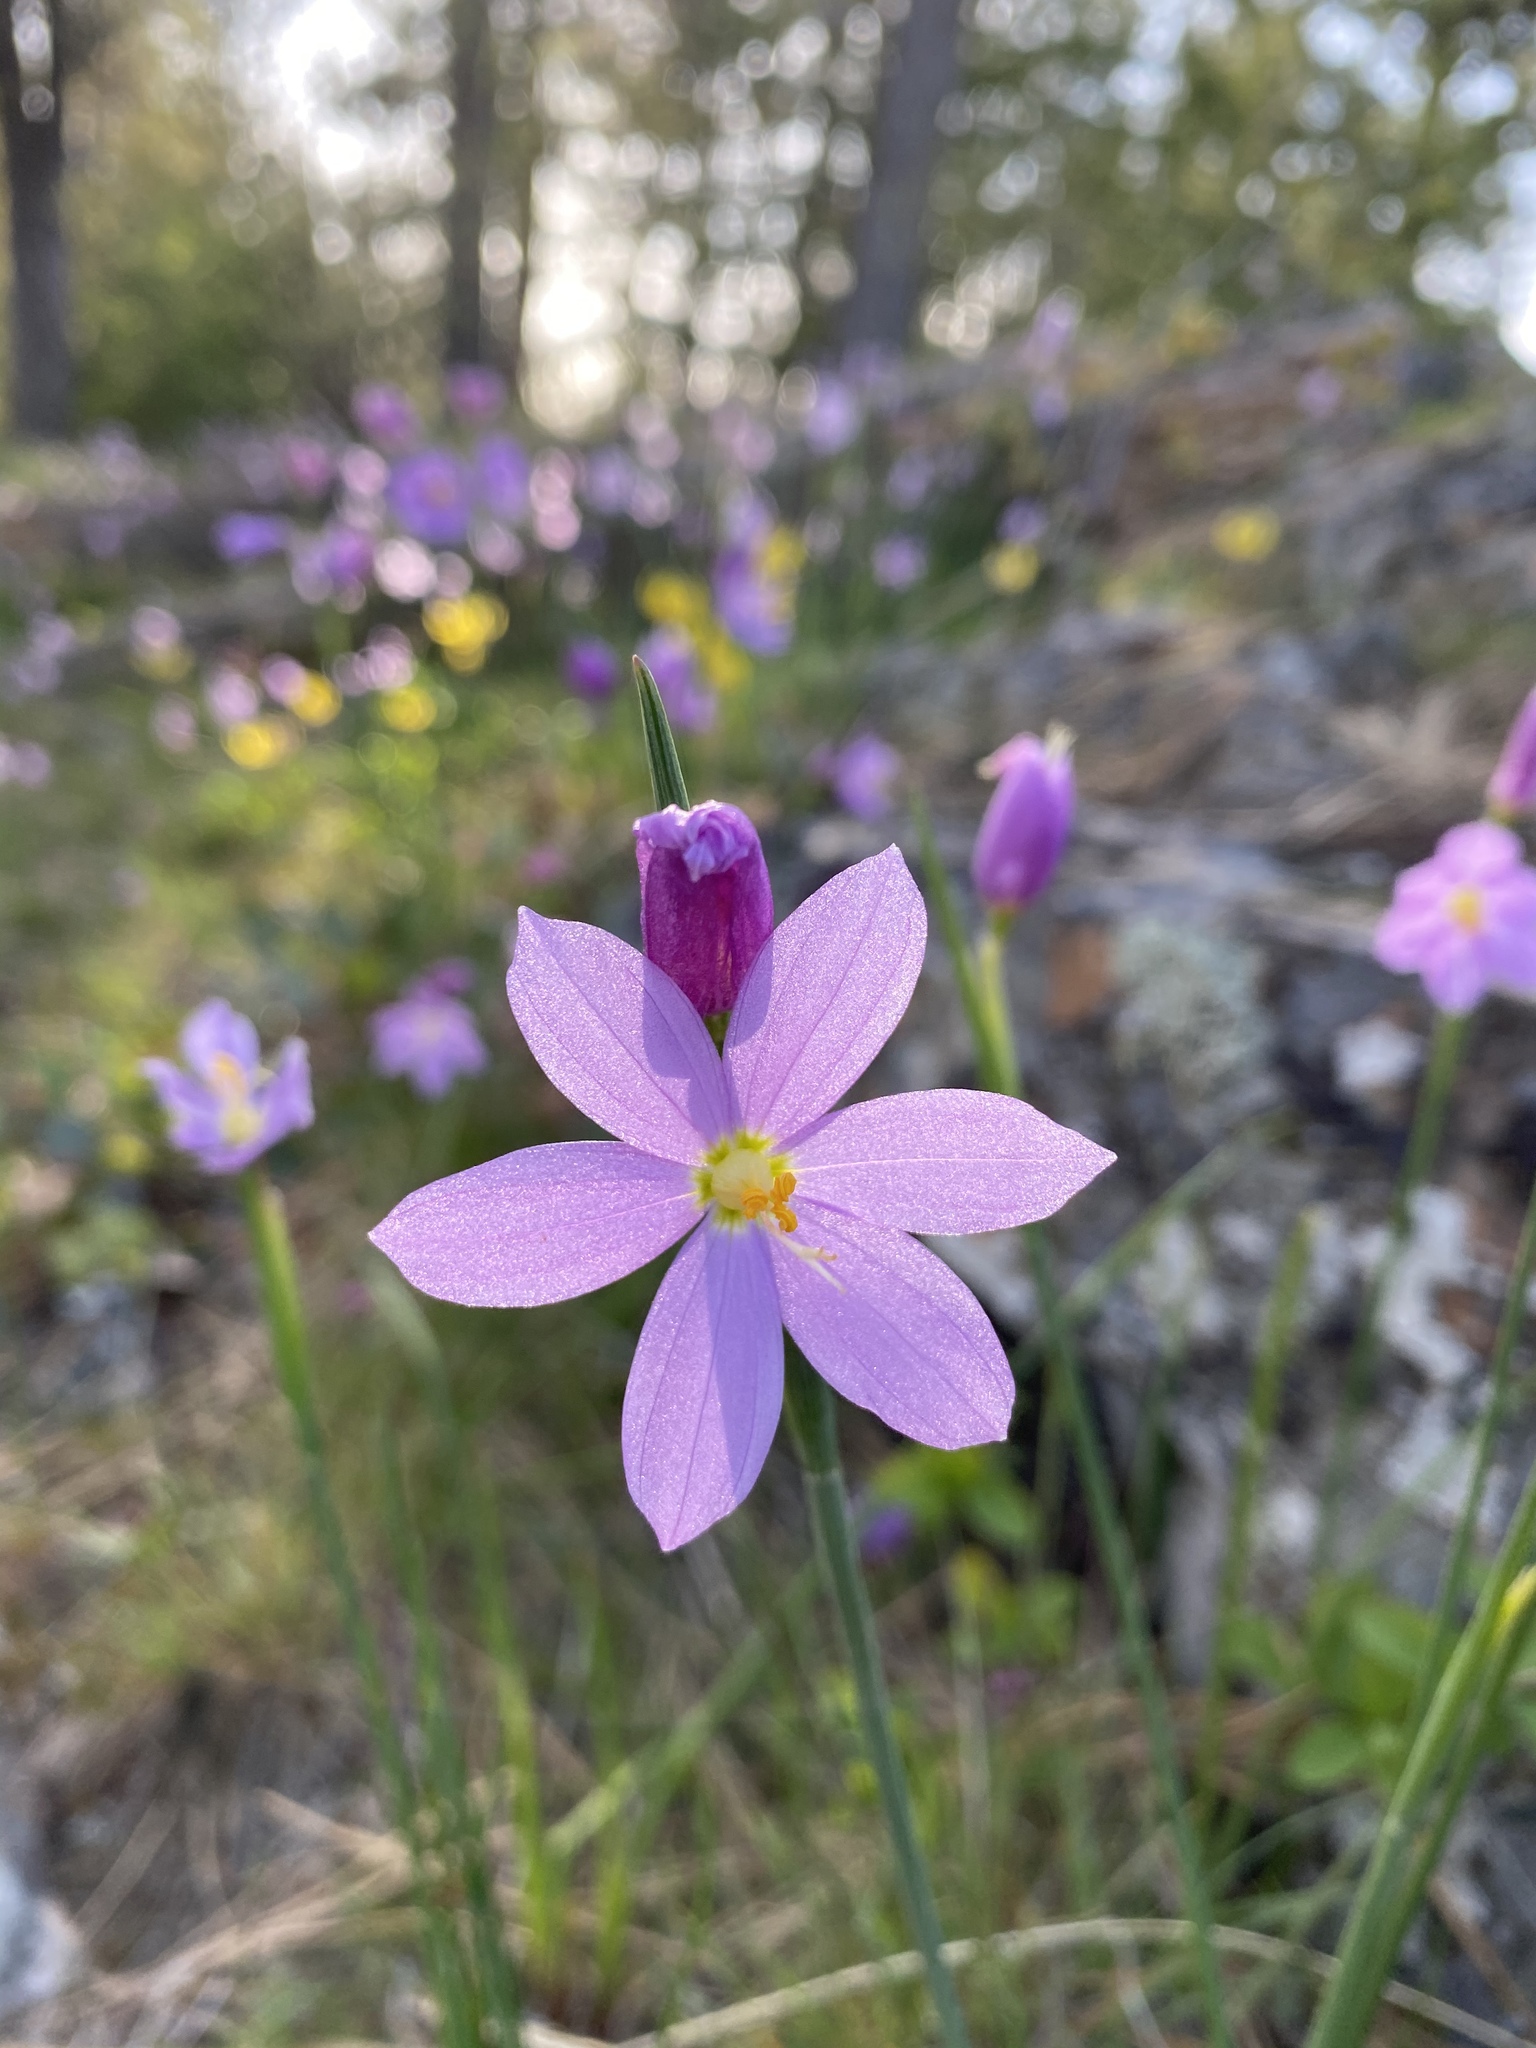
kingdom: Plantae
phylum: Tracheophyta
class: Liliopsida
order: Asparagales
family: Iridaceae
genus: Olsynium
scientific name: Olsynium douglasii
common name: Douglas' grasswidow
